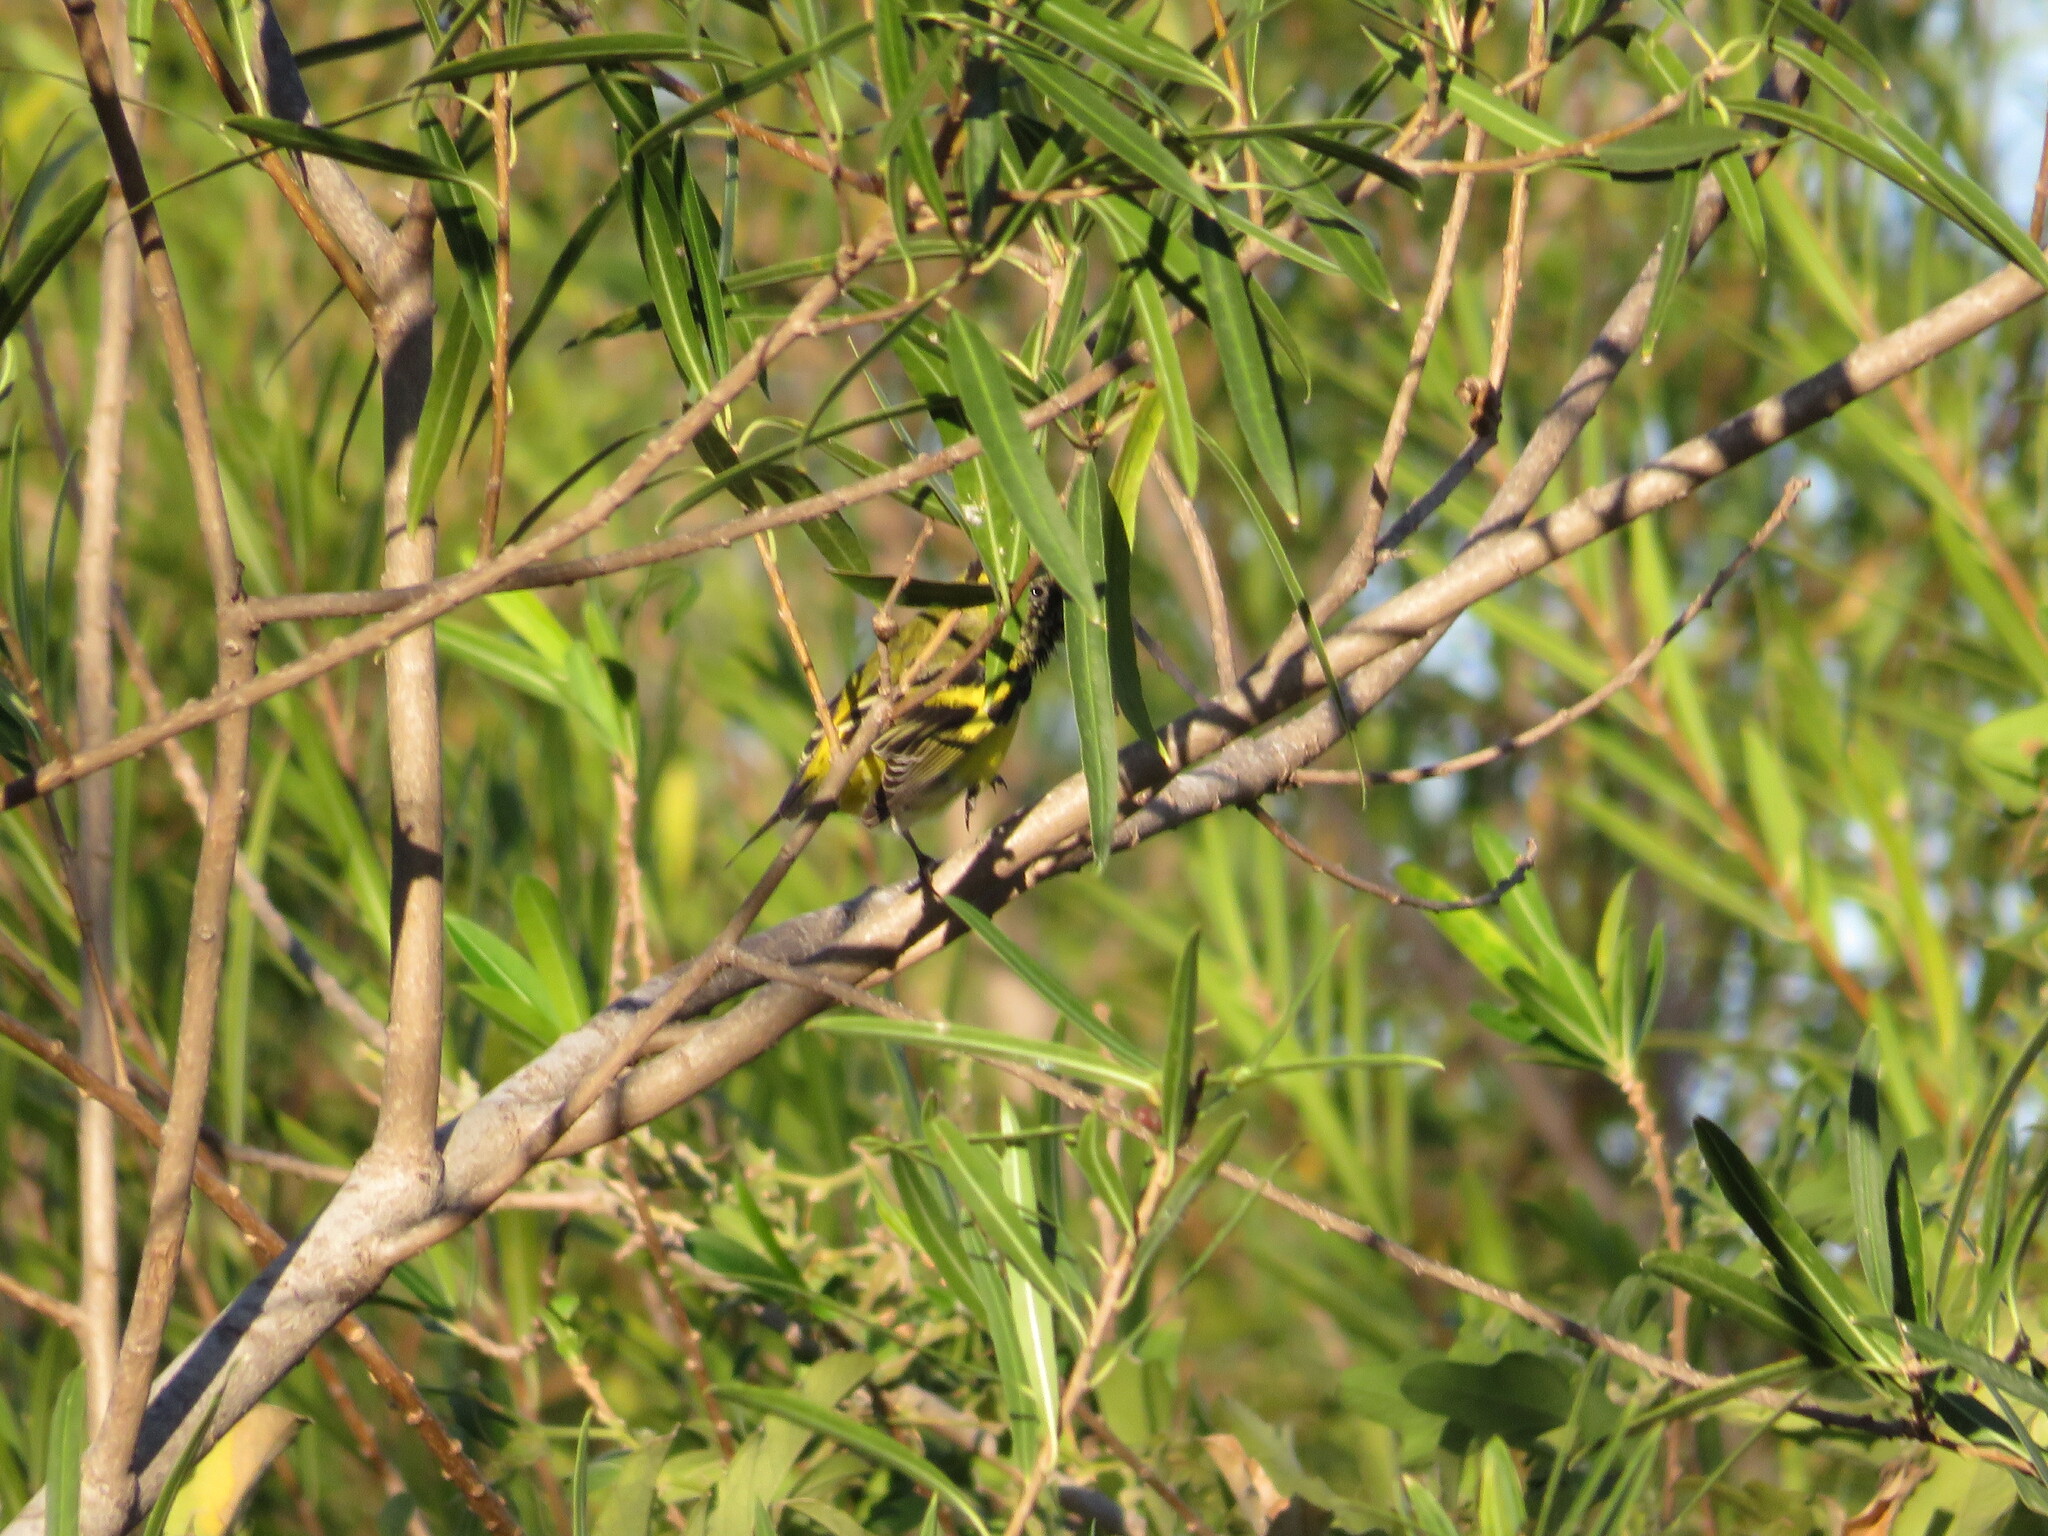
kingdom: Animalia
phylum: Chordata
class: Aves
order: Passeriformes
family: Fringillidae
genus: Spinus
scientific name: Spinus magellanicus
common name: Hooded siskin
